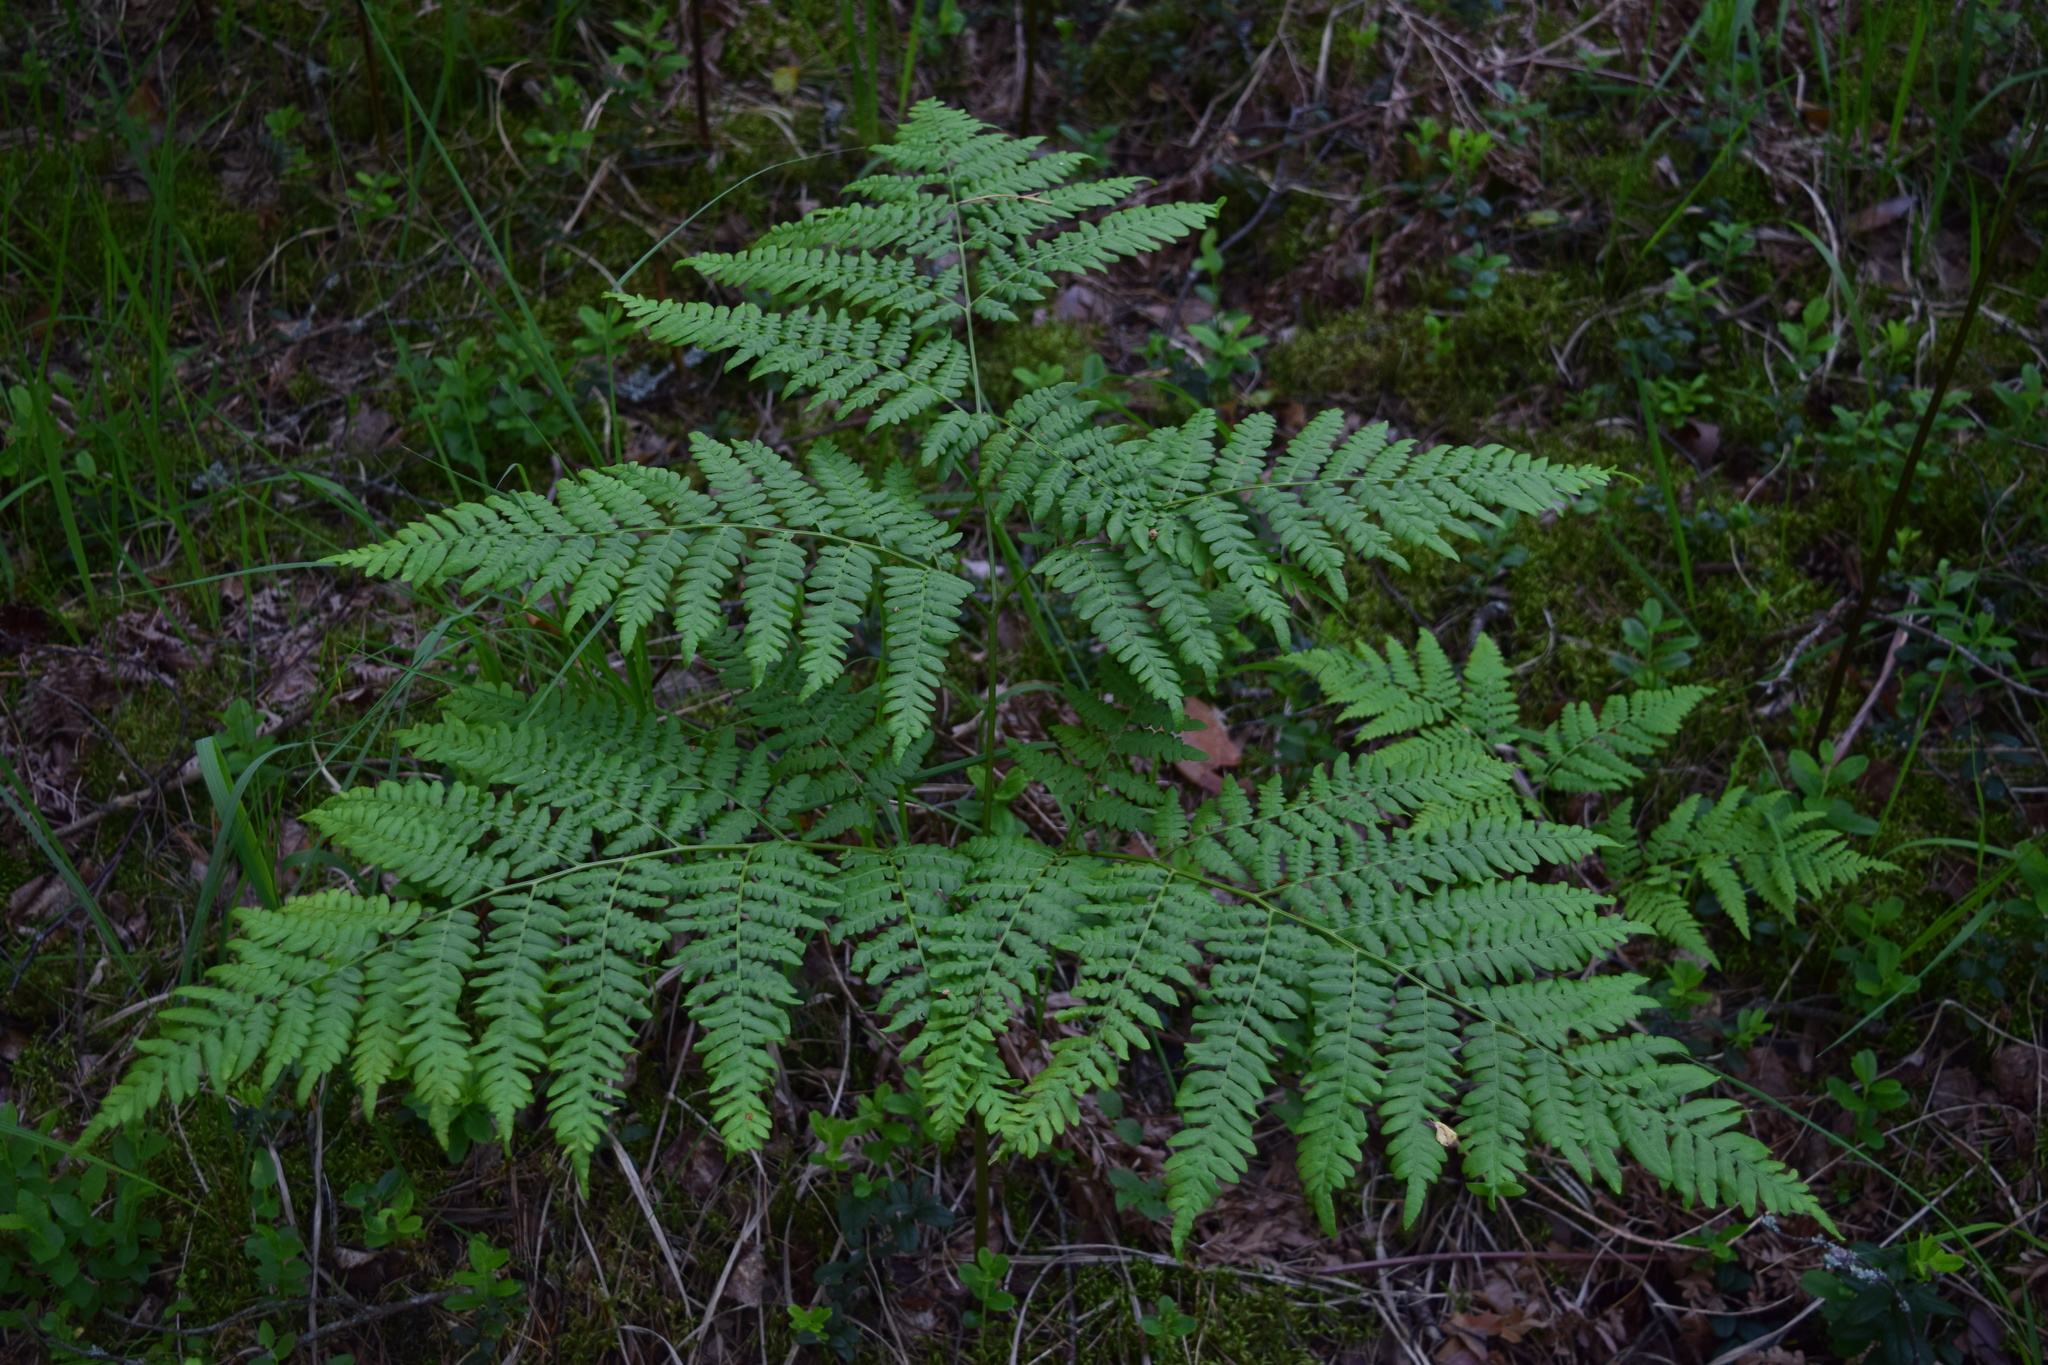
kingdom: Plantae
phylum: Tracheophyta
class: Polypodiopsida
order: Polypodiales
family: Dennstaedtiaceae
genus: Pteridium
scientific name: Pteridium aquilinum
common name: Bracken
